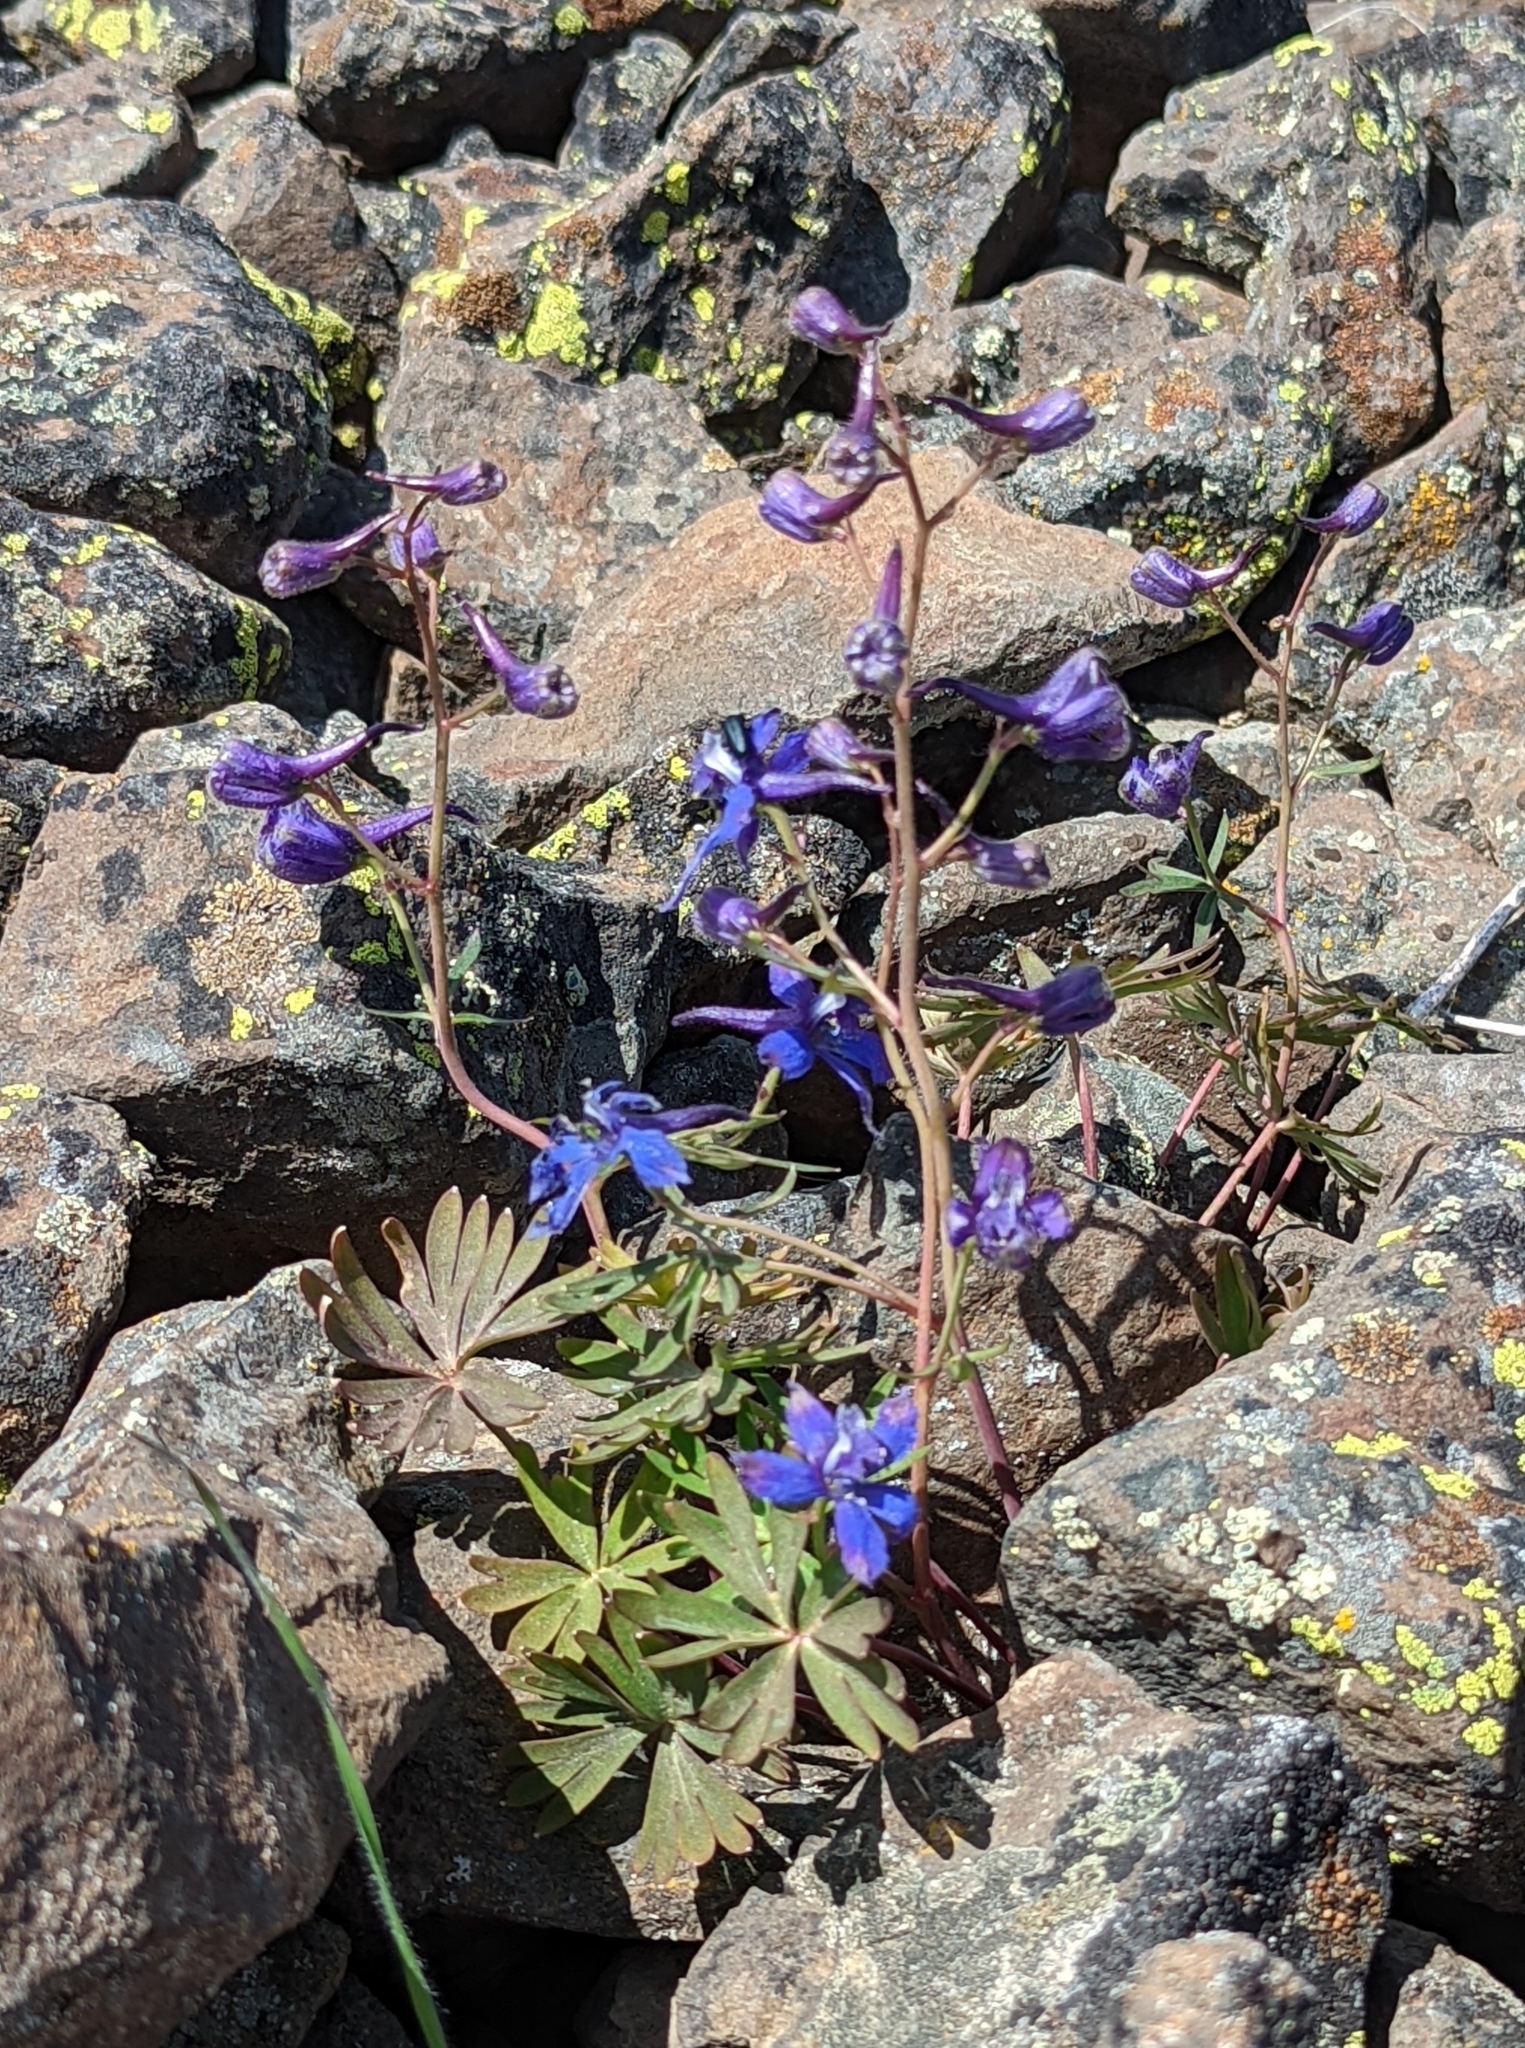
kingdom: Plantae
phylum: Tracheophyta
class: Magnoliopsida
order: Ranunculales
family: Ranunculaceae
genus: Delphinium
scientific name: Delphinium nuttallianum
